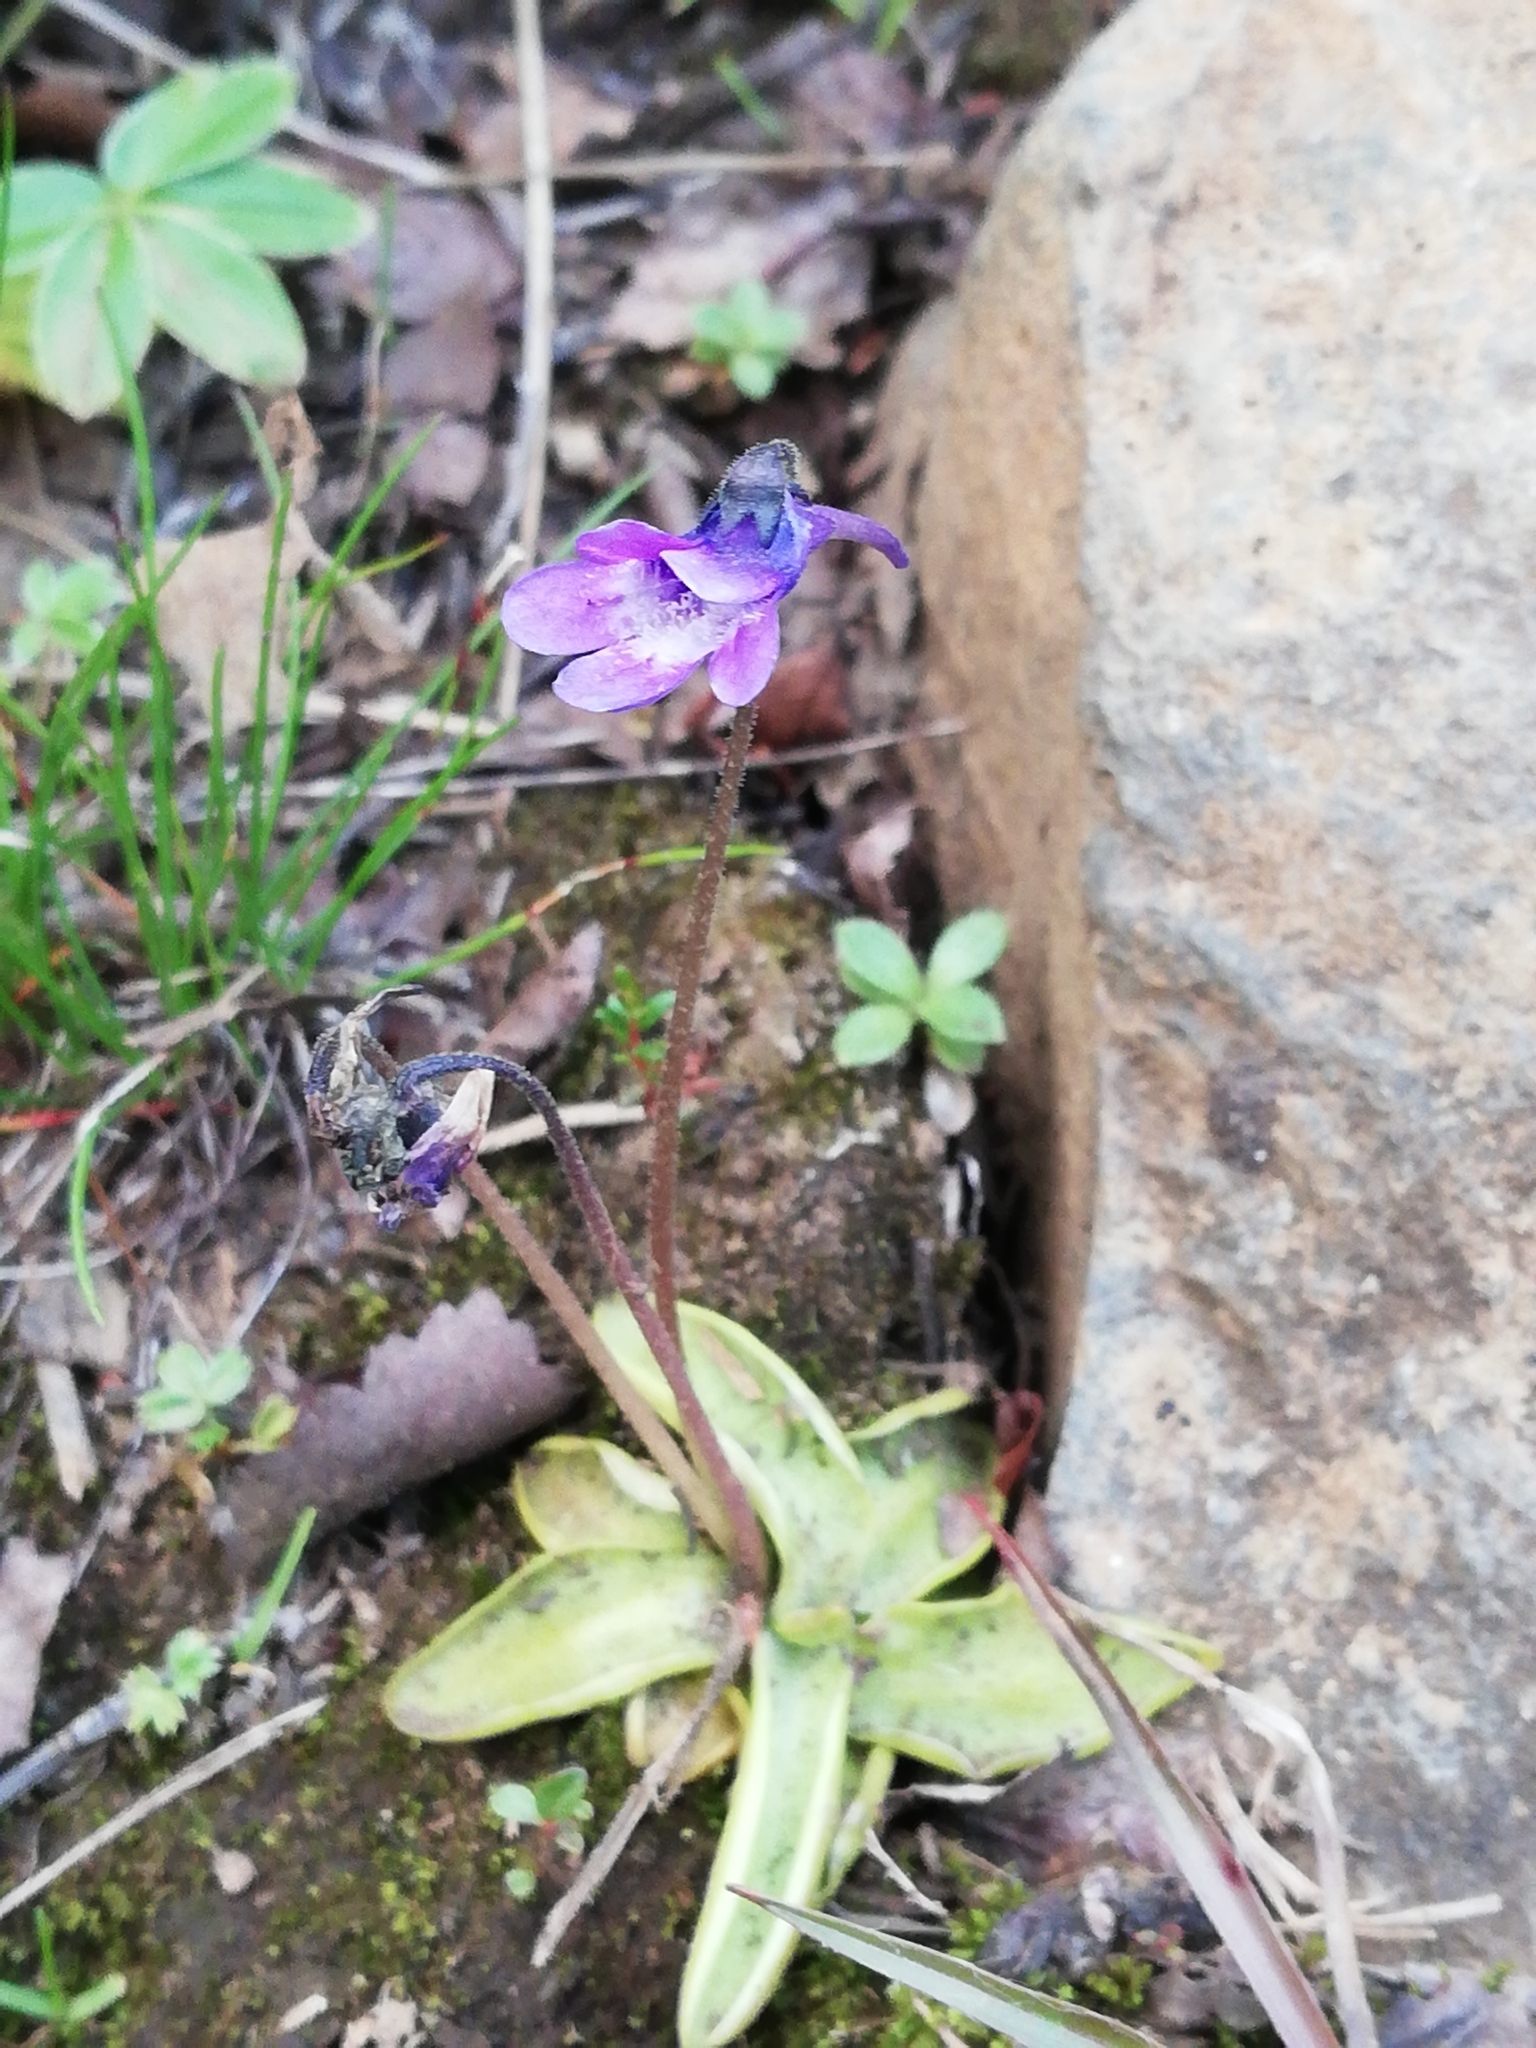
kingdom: Plantae
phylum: Tracheophyta
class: Magnoliopsida
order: Lamiales
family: Lentibulariaceae
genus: Pinguicula
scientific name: Pinguicula vulgaris
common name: Common butterwort
